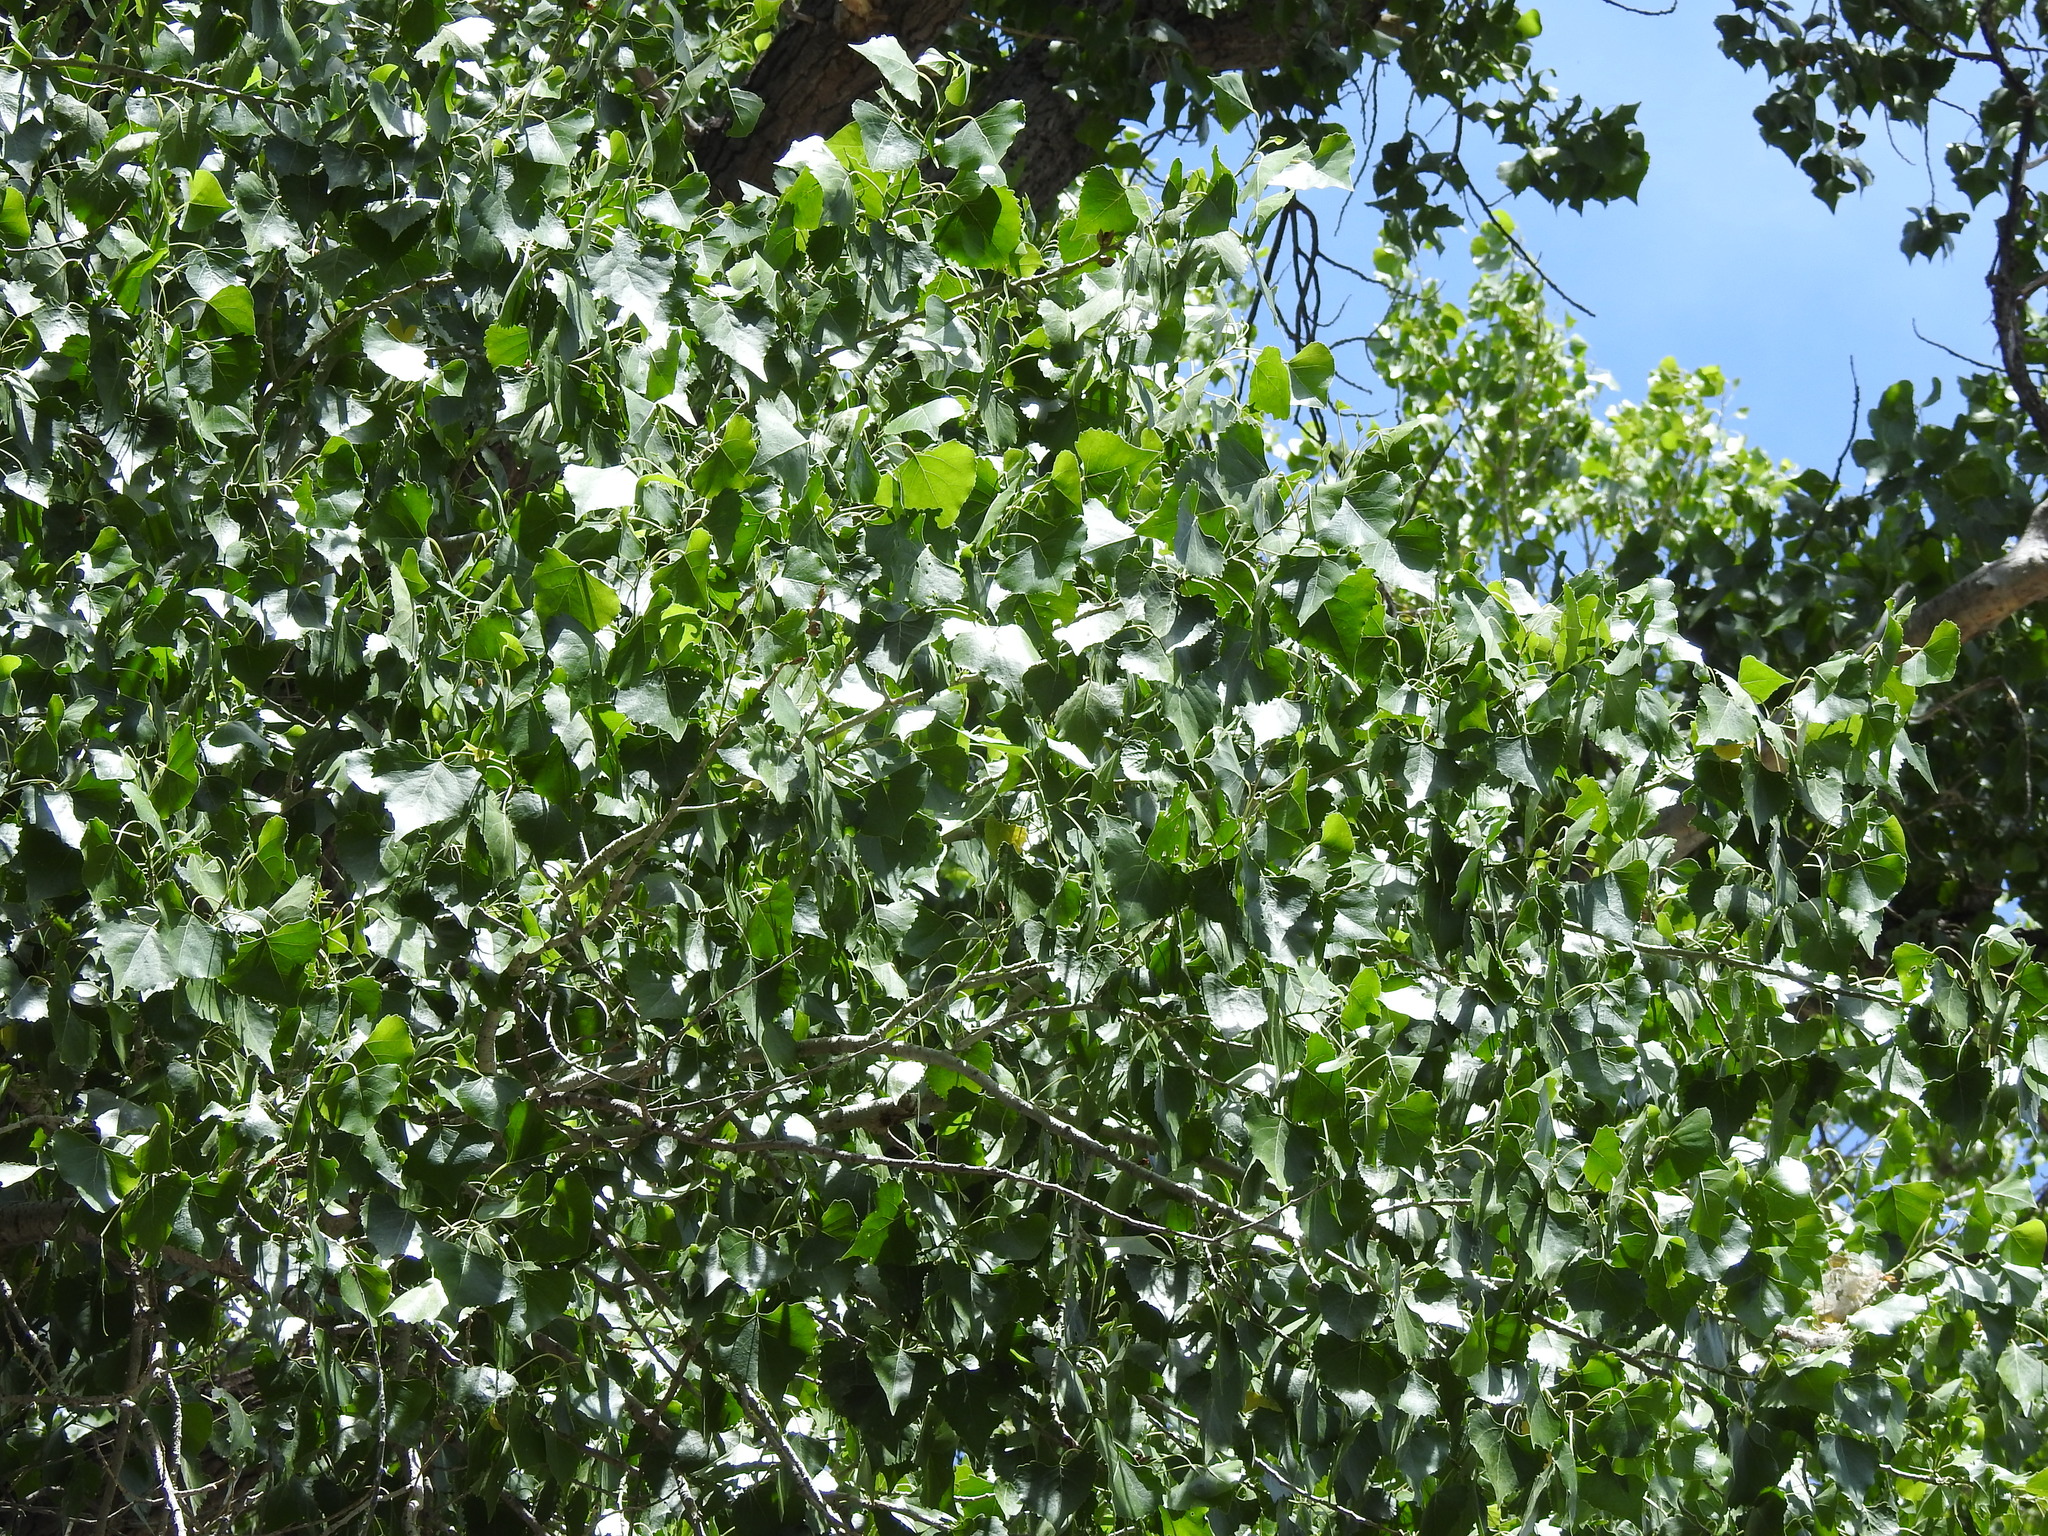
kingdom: Plantae
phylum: Tracheophyta
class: Magnoliopsida
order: Malpighiales
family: Salicaceae
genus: Populus
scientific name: Populus fremontii
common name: Fremont's cottonwood
